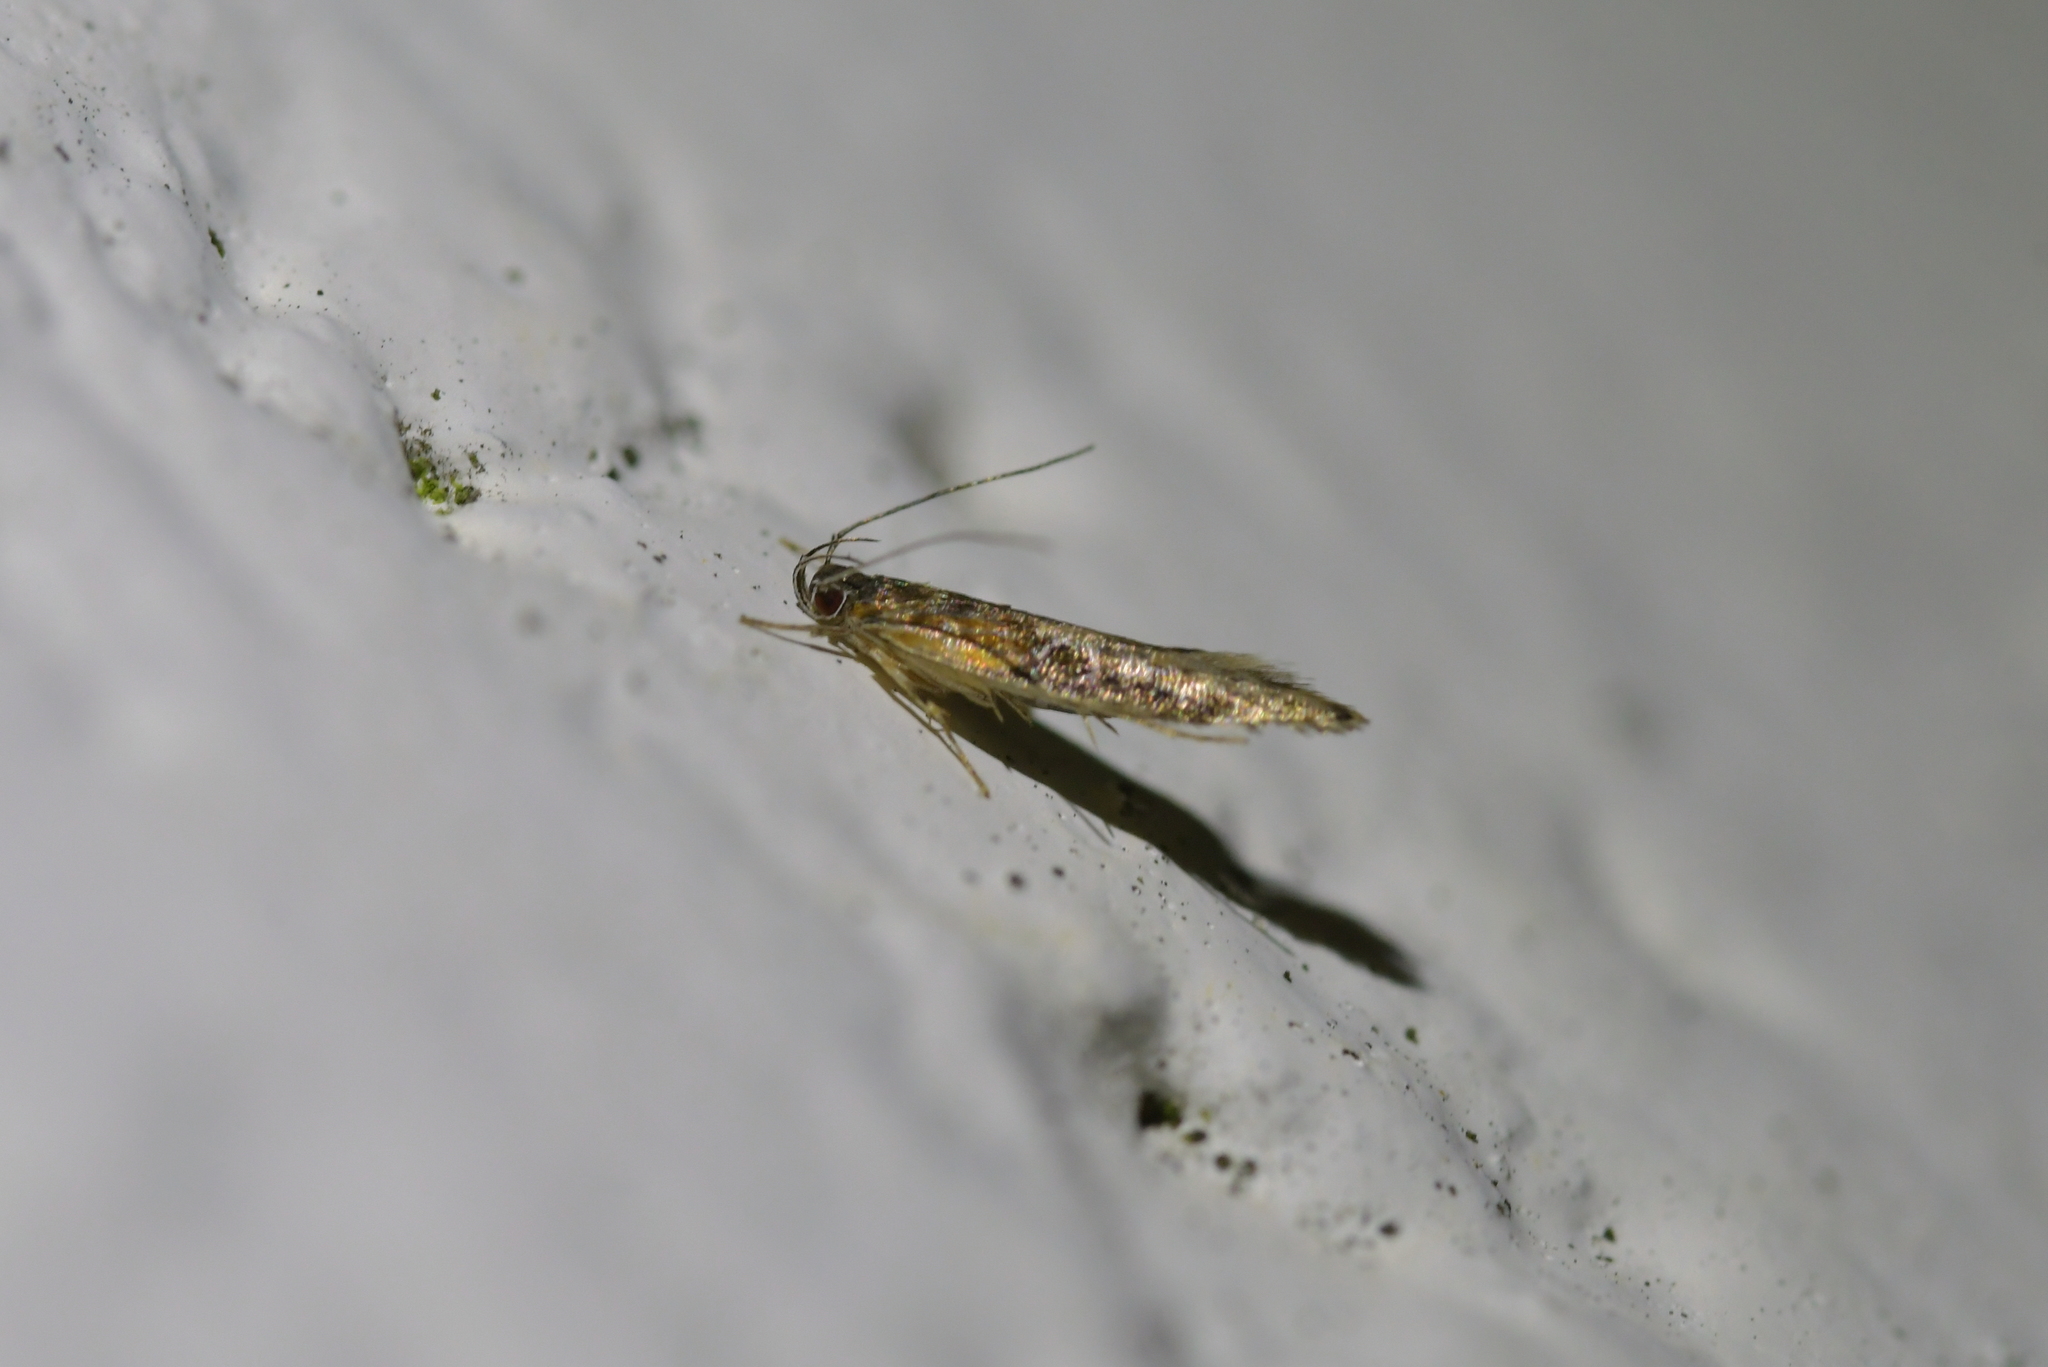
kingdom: Animalia
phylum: Arthropoda
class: Insecta
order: Lepidoptera
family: Elachistidae
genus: Circoxena
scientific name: Circoxena ditrocha
